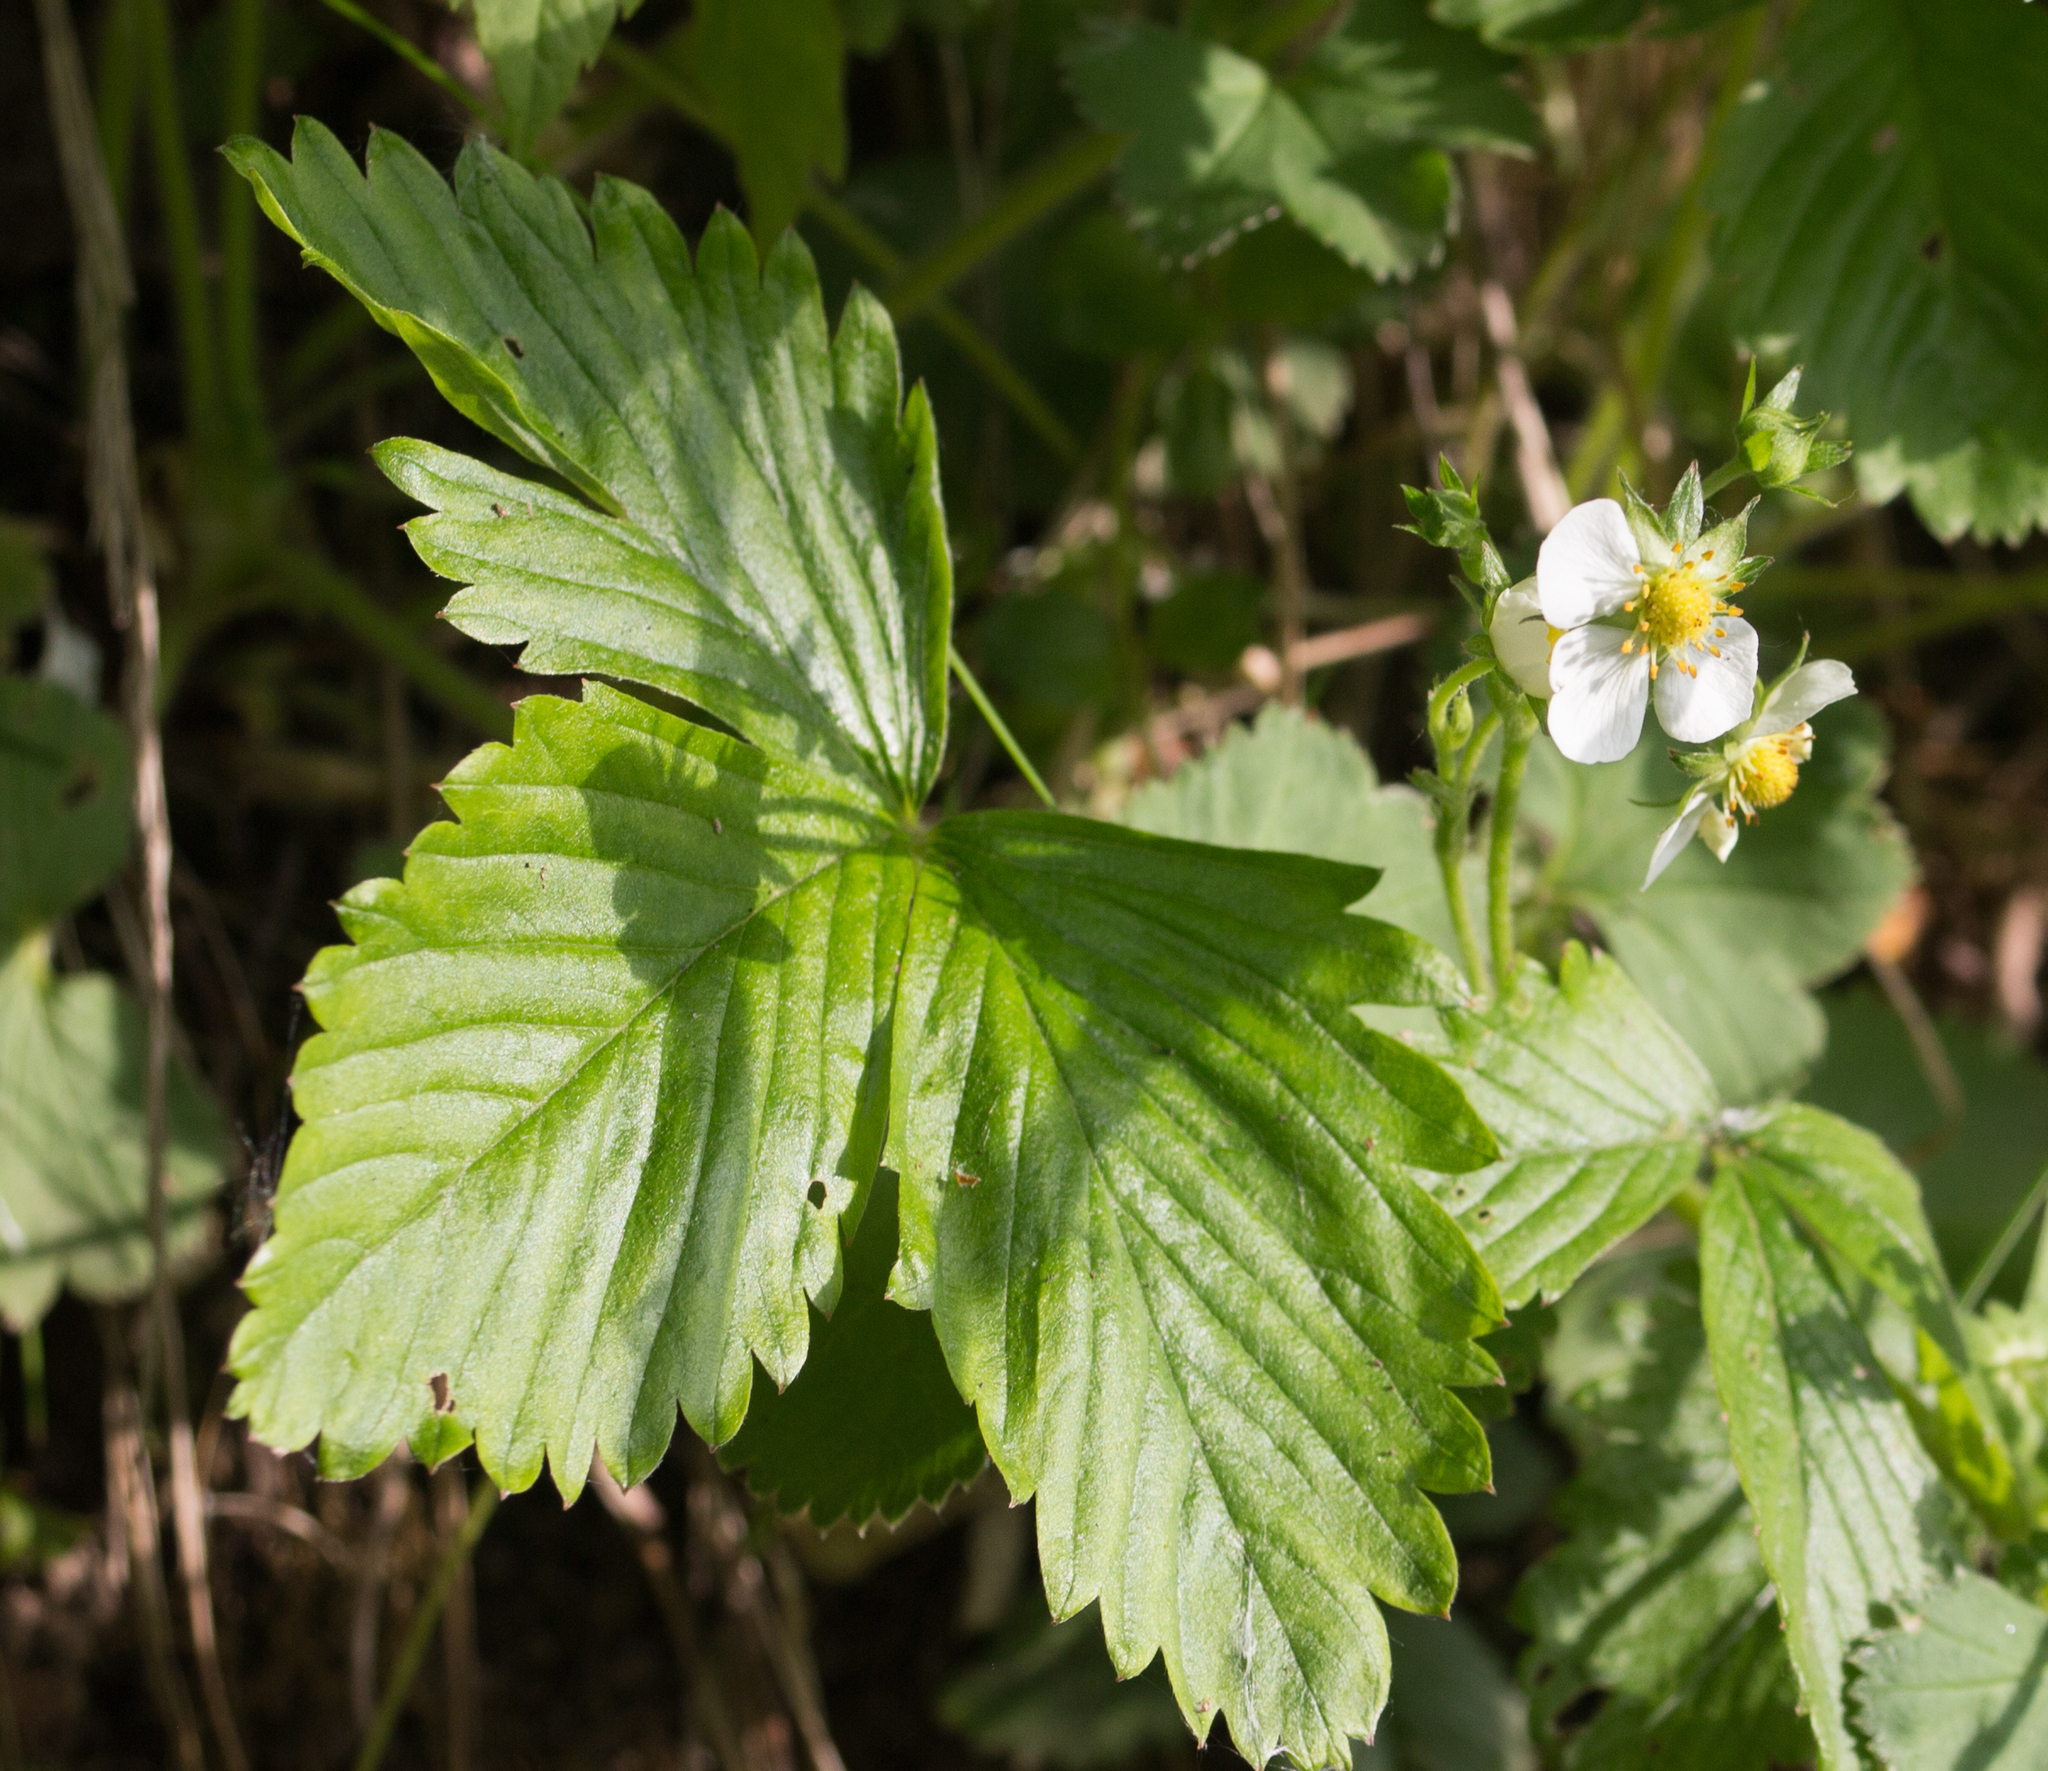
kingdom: Plantae
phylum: Tracheophyta
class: Magnoliopsida
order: Rosales
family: Rosaceae
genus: Fragaria
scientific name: Fragaria vesca
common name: Wild strawberry
